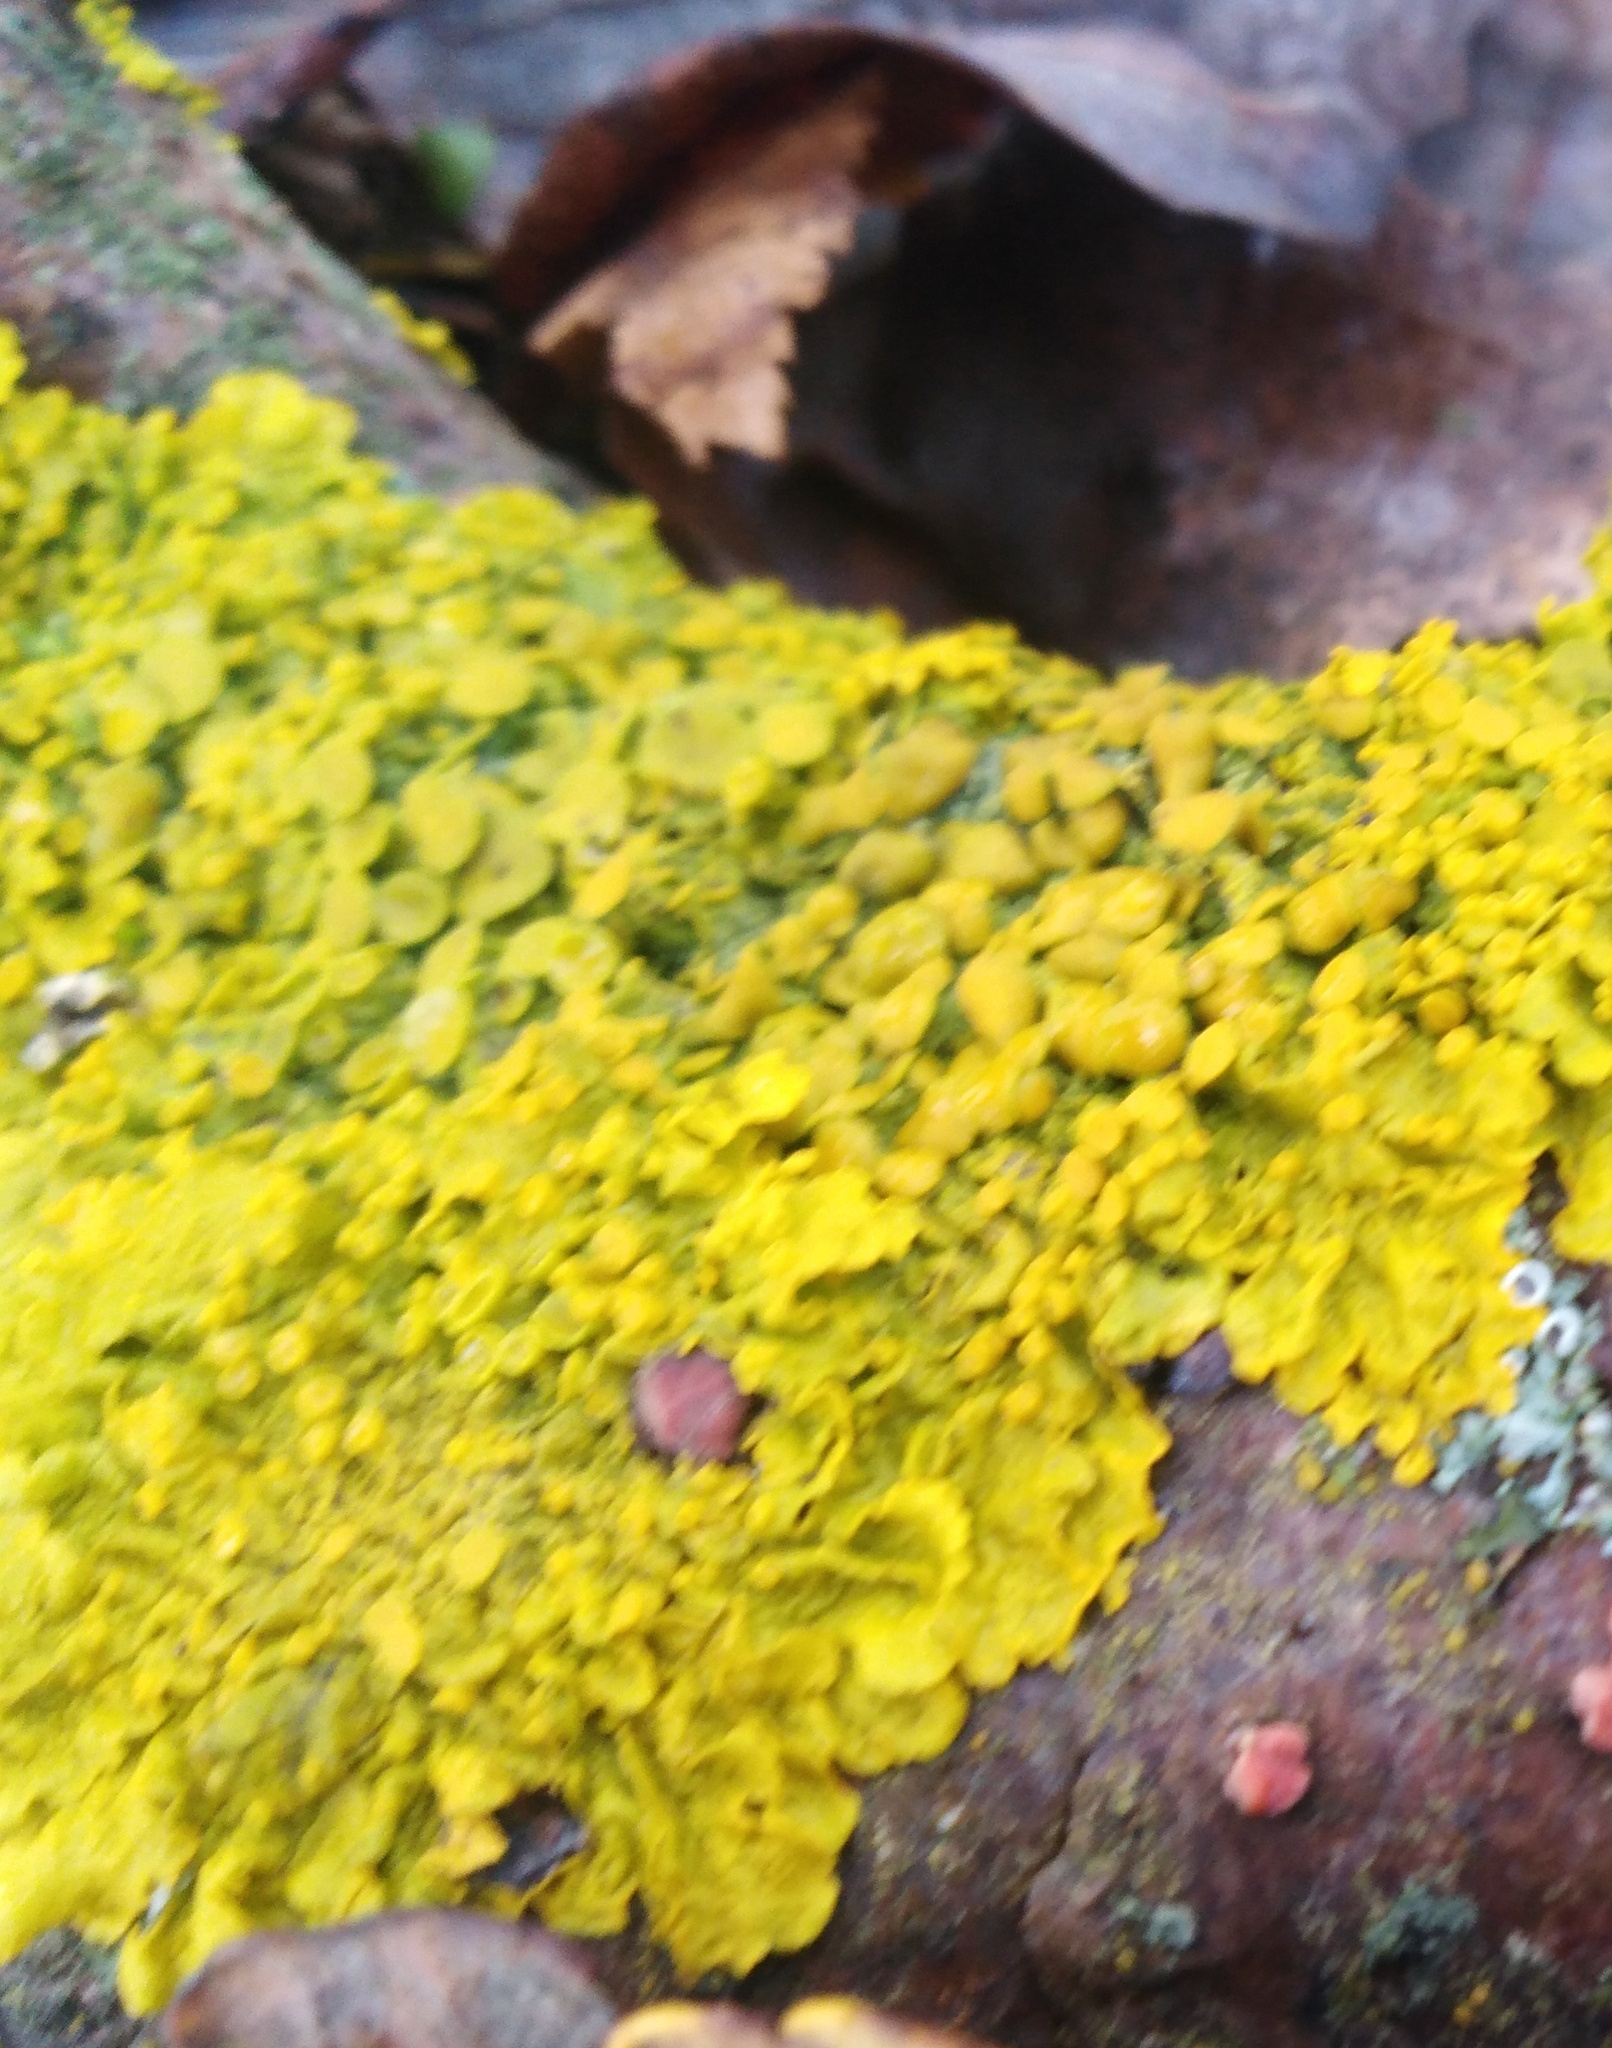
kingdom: Fungi
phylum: Ascomycota
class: Lecanoromycetes
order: Teloschistales
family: Teloschistaceae
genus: Xanthoria
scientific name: Xanthoria parietina
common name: Common orange lichen
